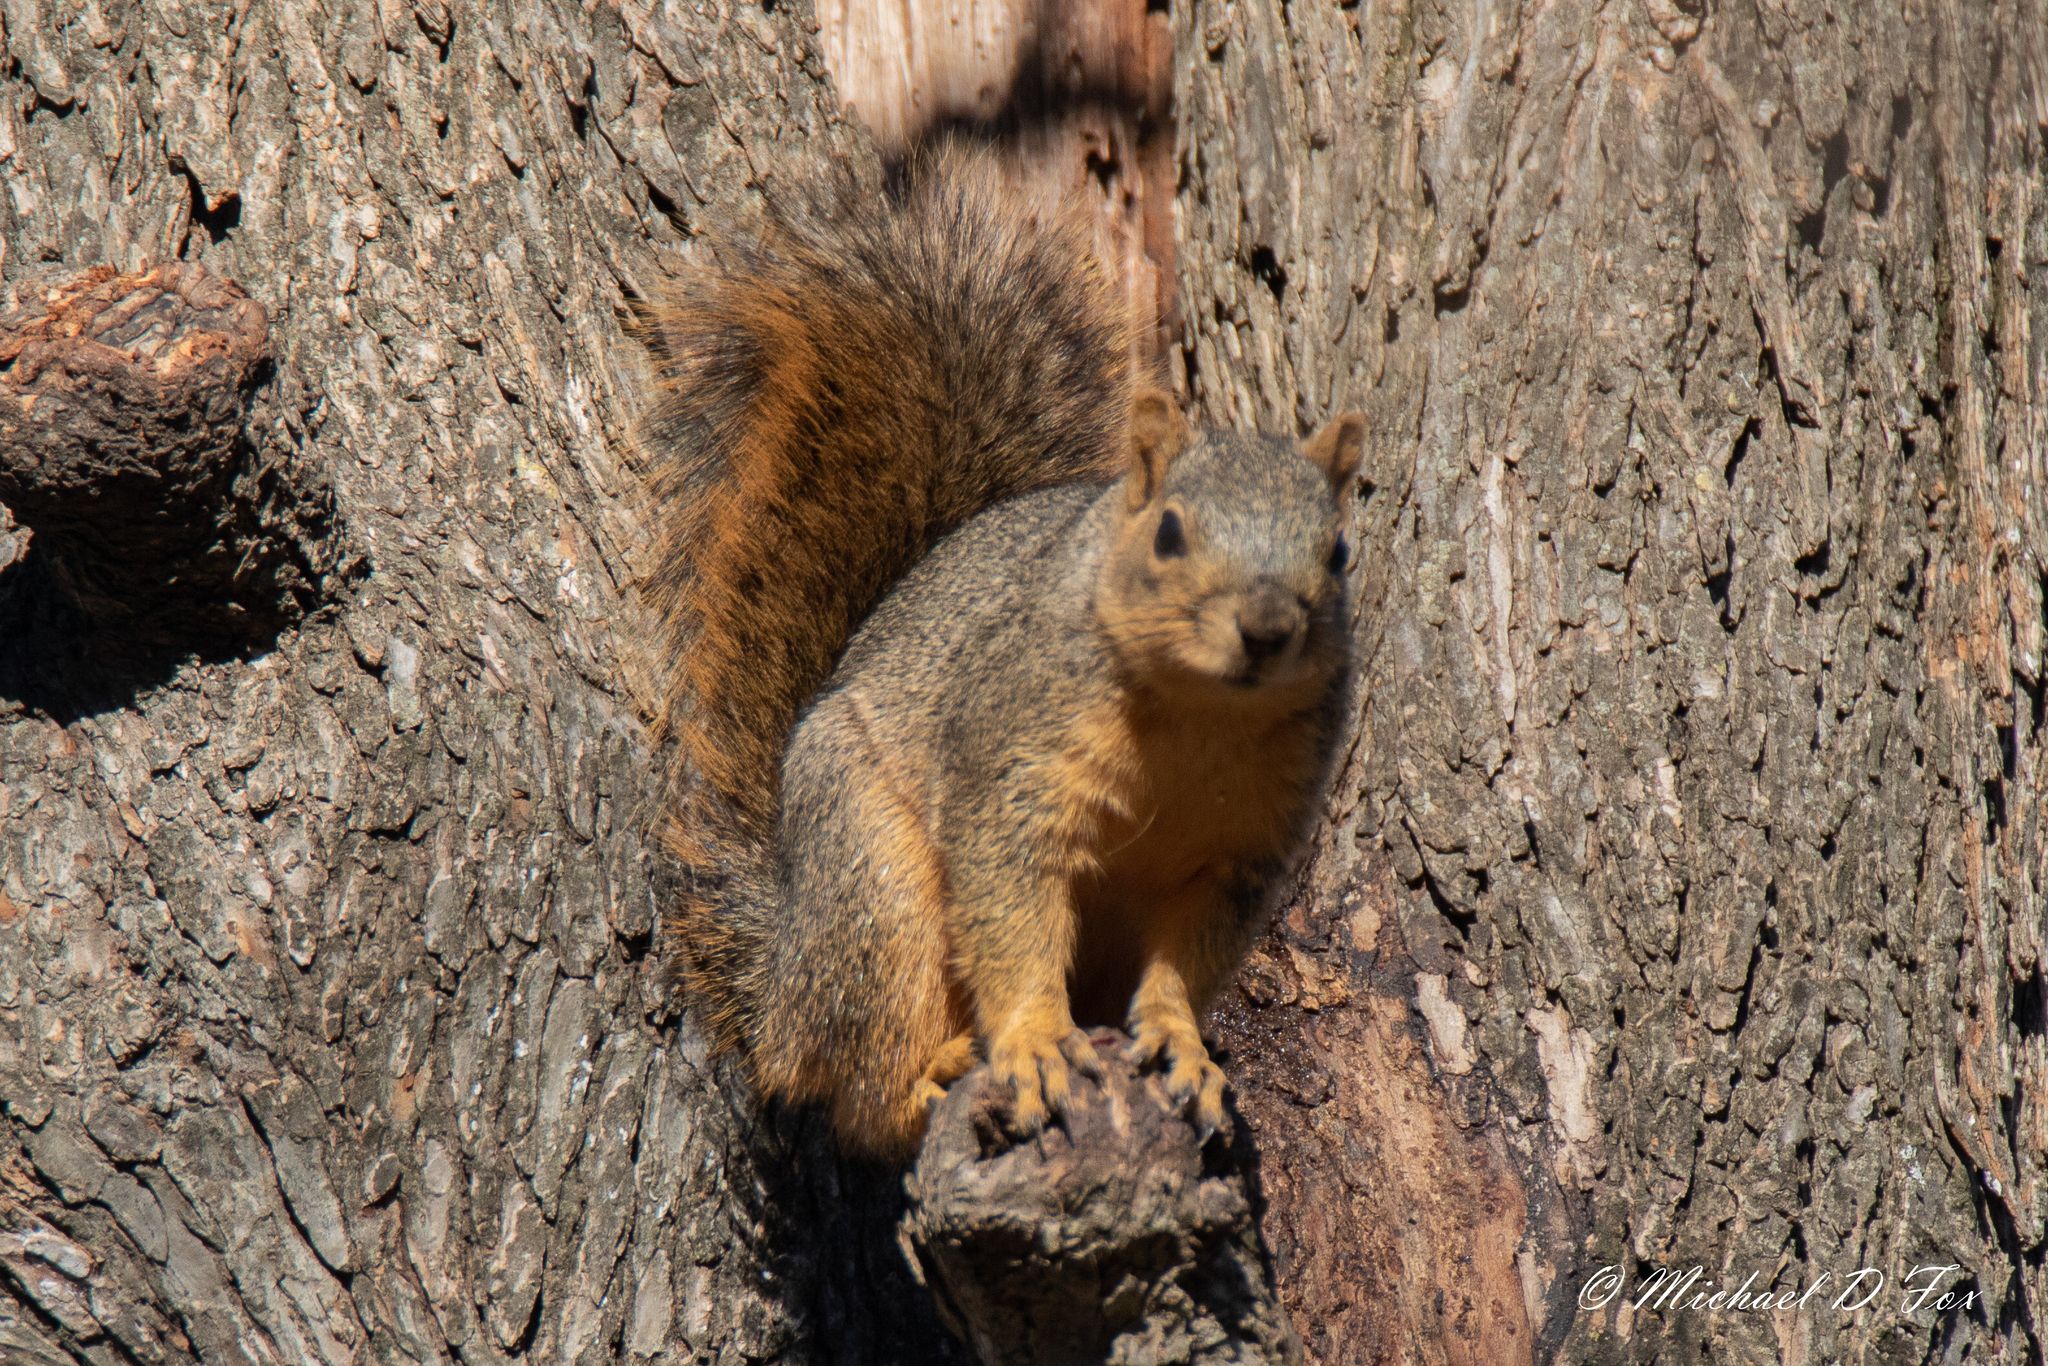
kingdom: Animalia
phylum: Chordata
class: Mammalia
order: Rodentia
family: Sciuridae
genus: Sciurus
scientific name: Sciurus niger
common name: Fox squirrel
